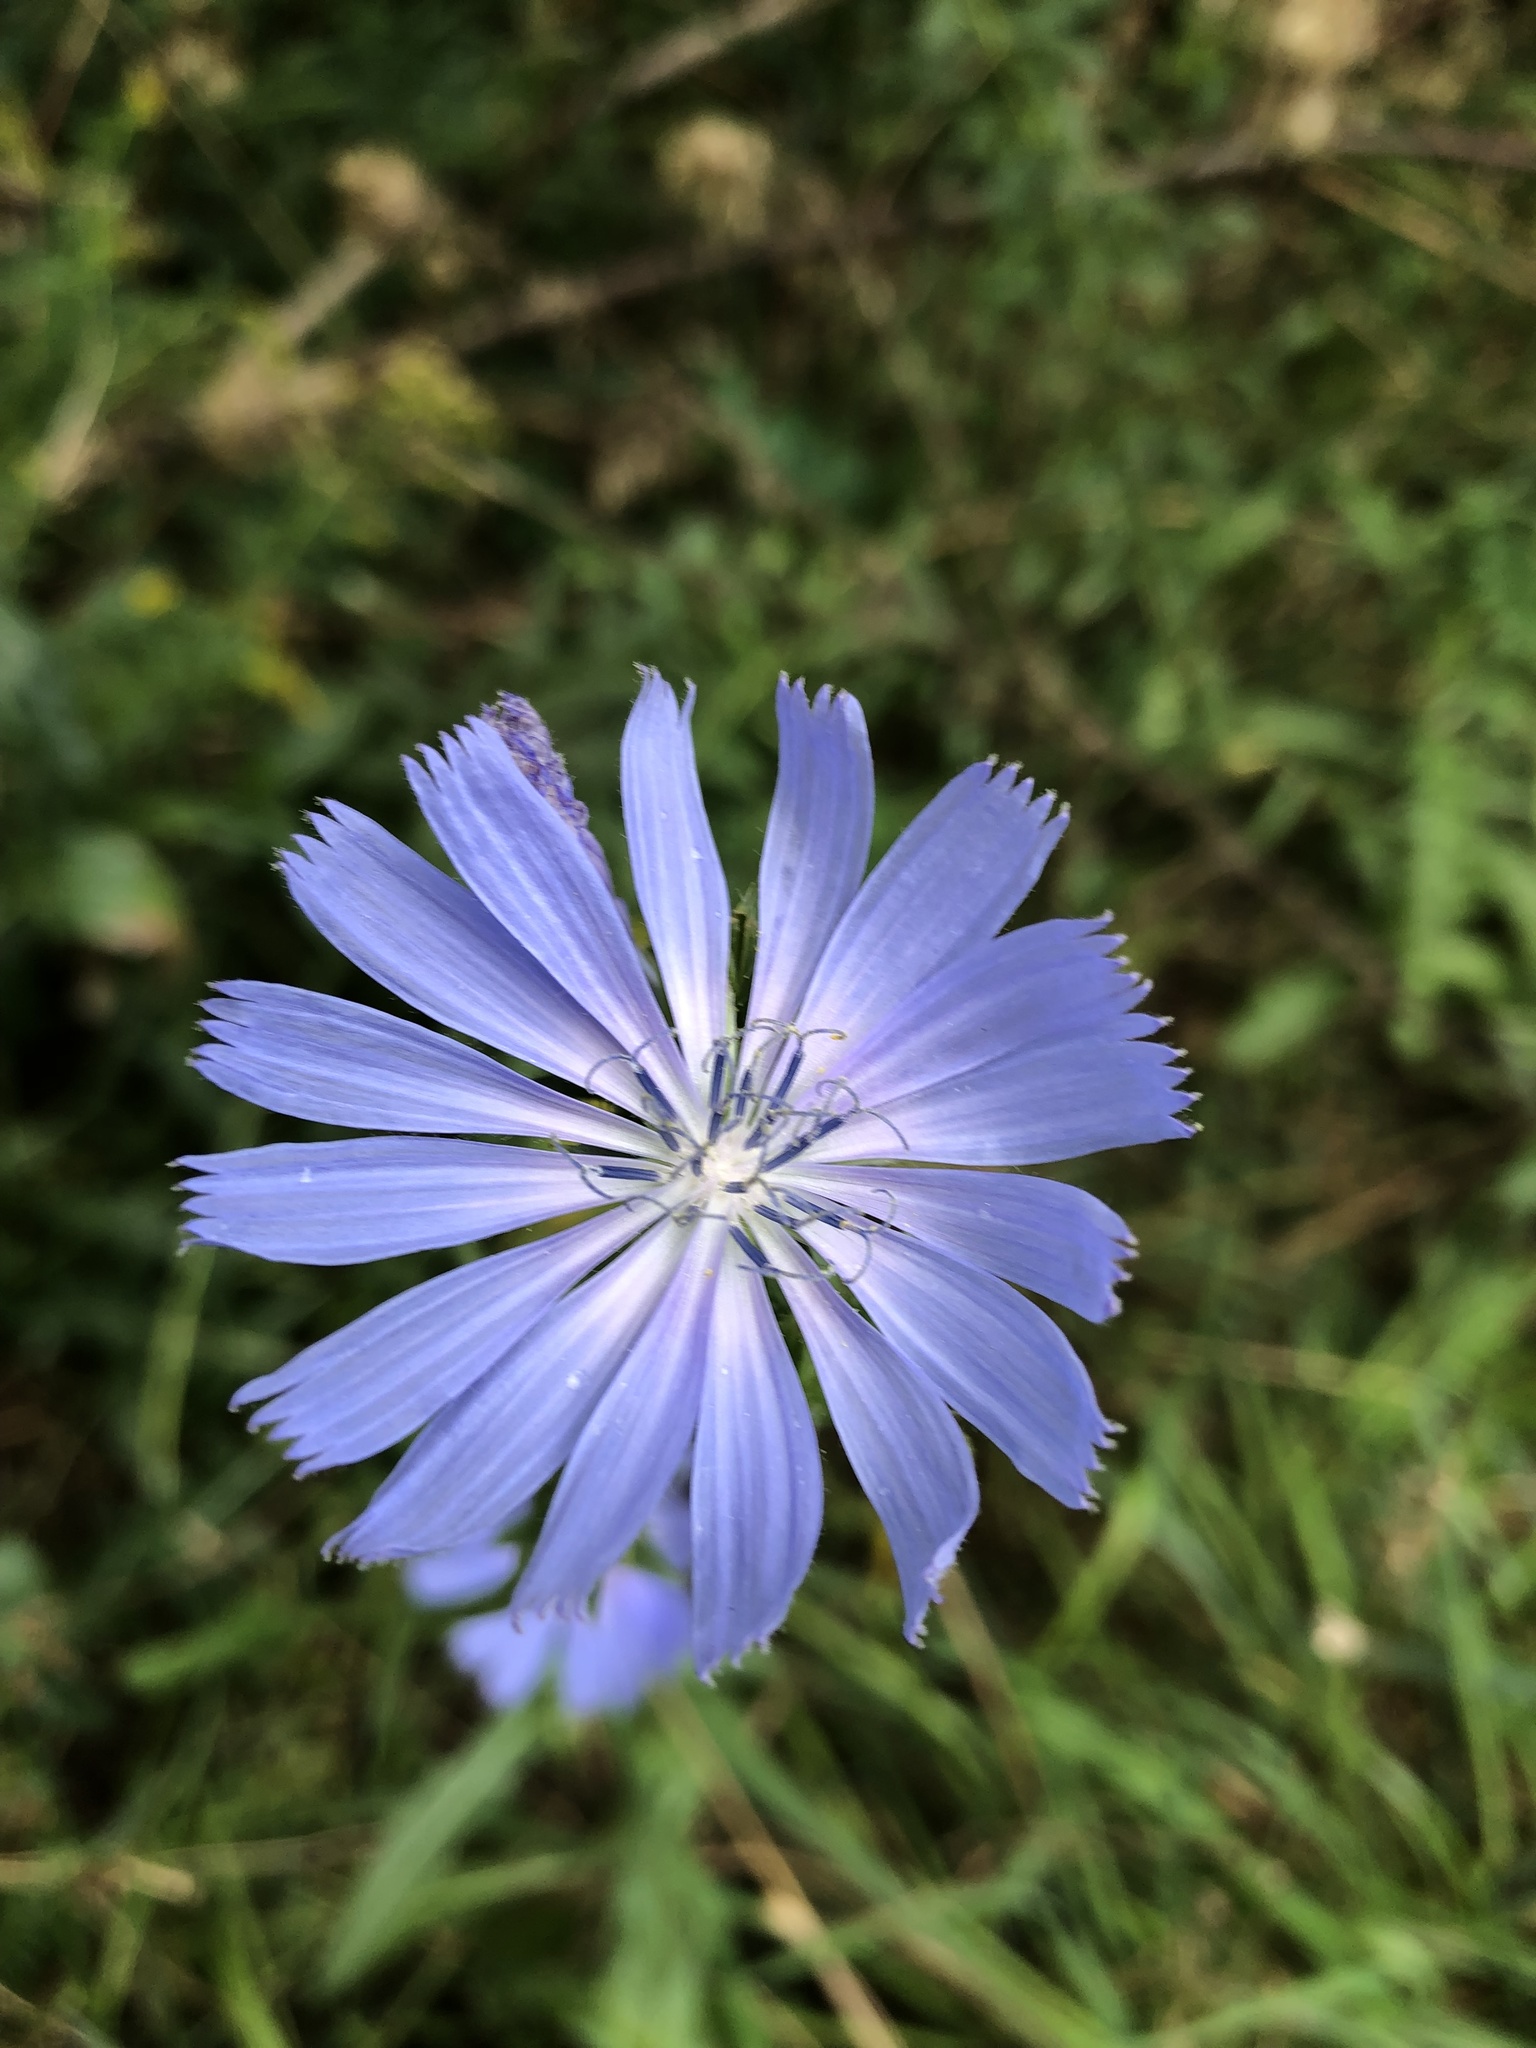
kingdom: Plantae
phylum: Tracheophyta
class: Magnoliopsida
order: Asterales
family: Asteraceae
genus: Cichorium
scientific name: Cichorium intybus
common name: Chicory
